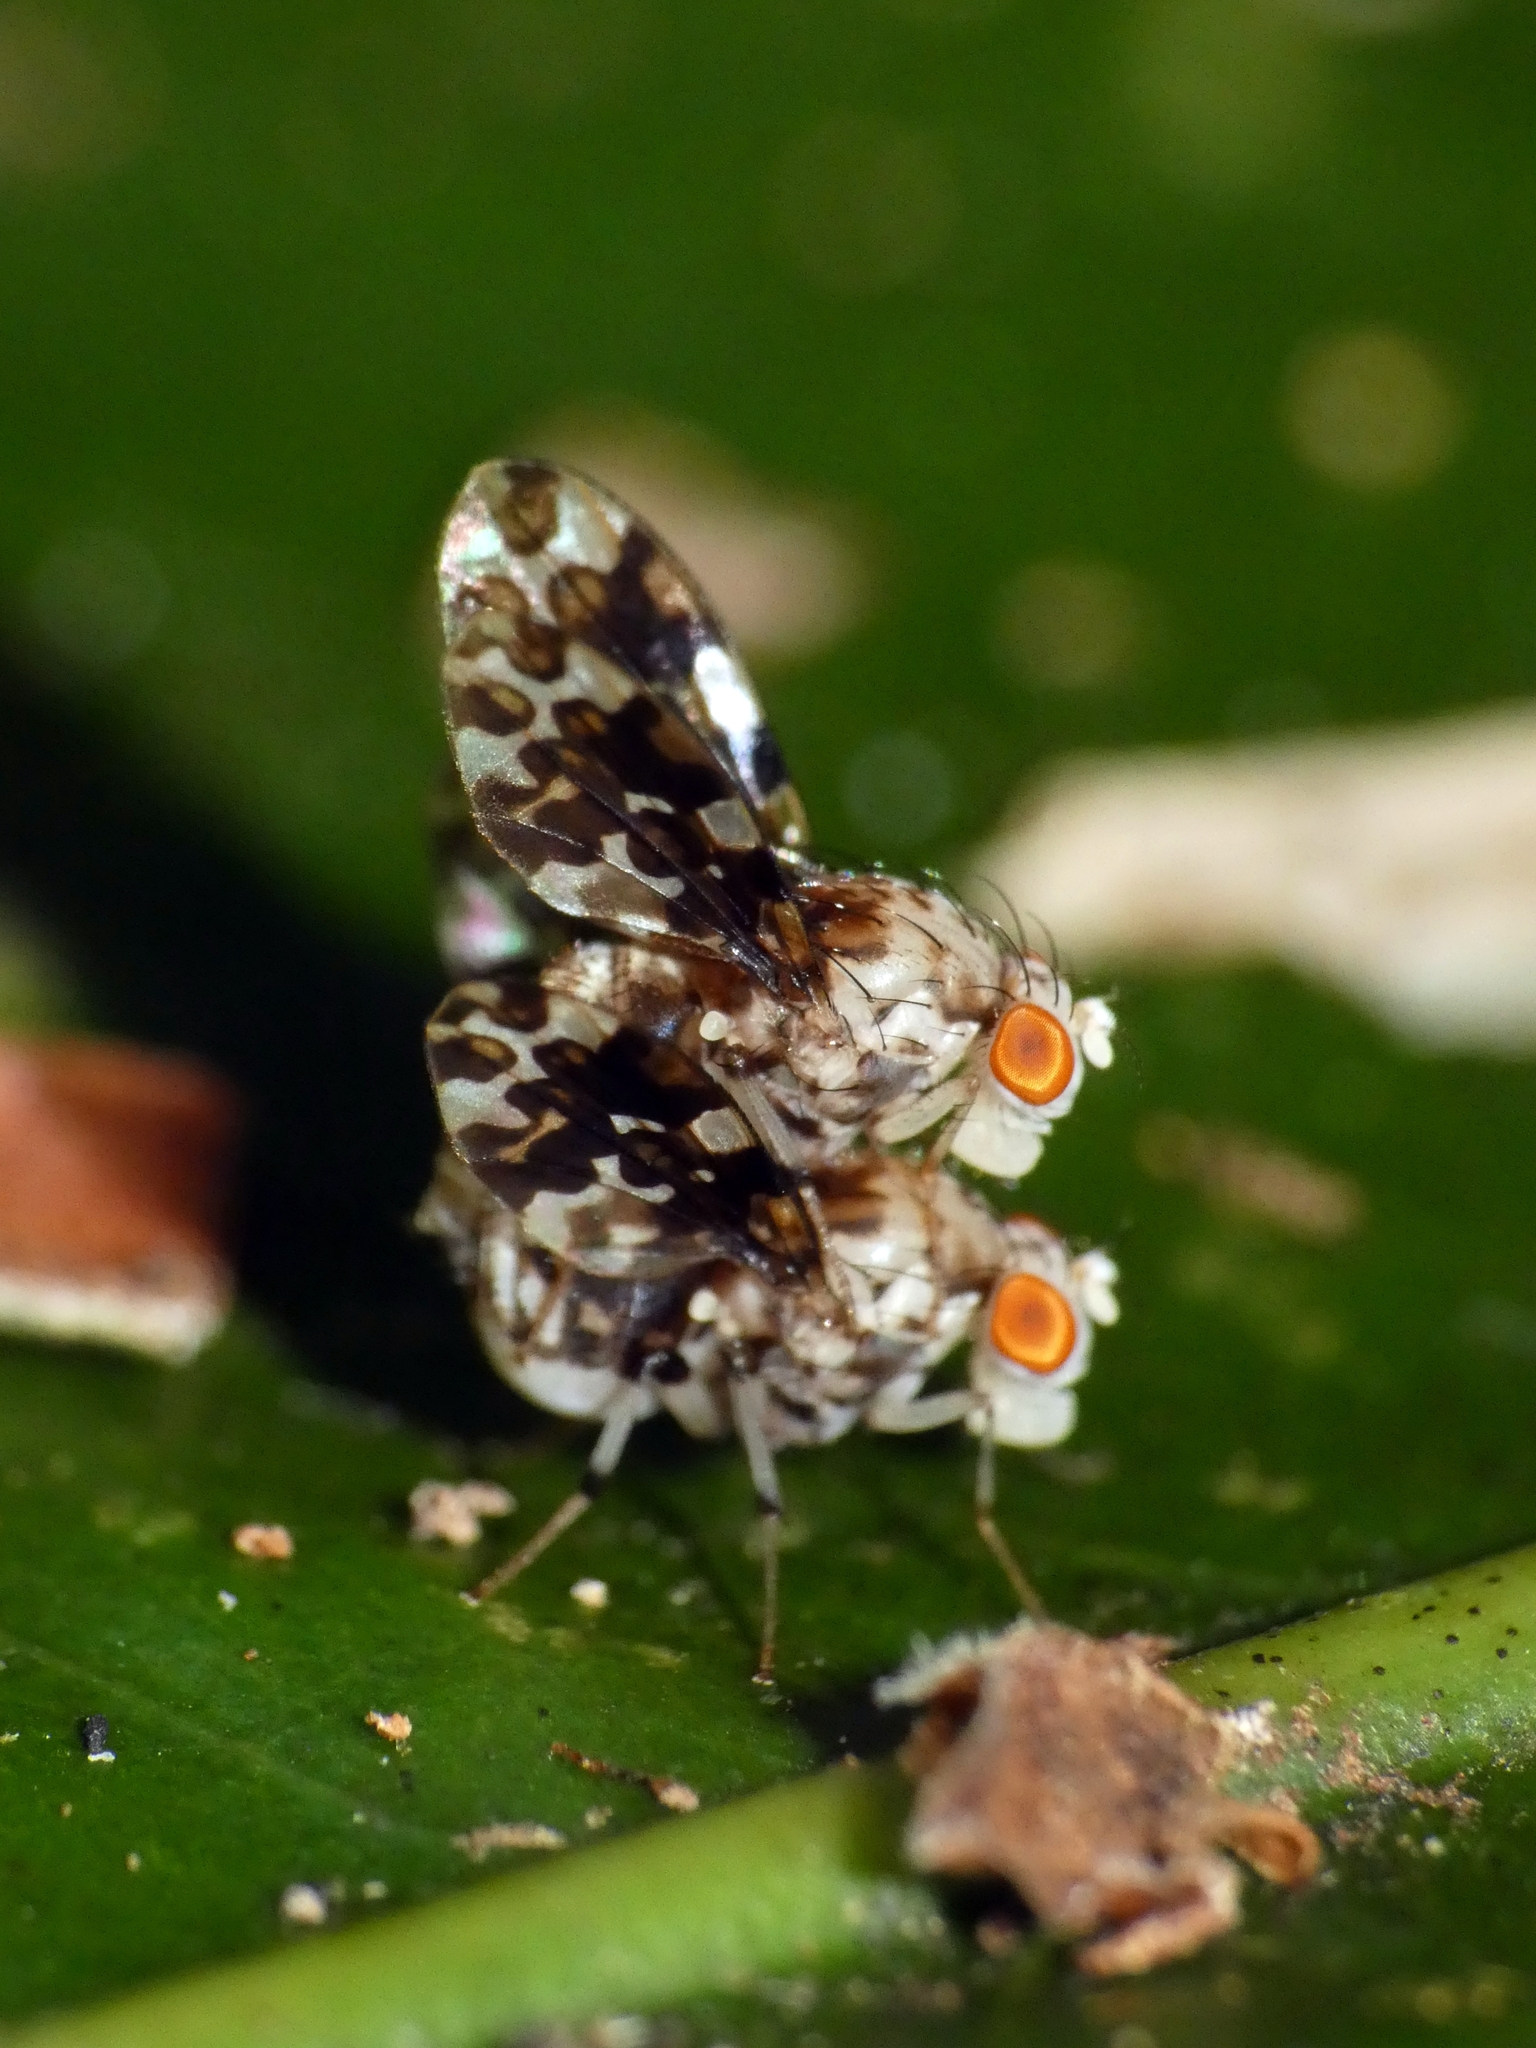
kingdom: Animalia
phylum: Arthropoda
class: Insecta
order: Diptera
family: Lauxaniidae
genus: Mettinia
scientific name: Mettinia suboceliifera
